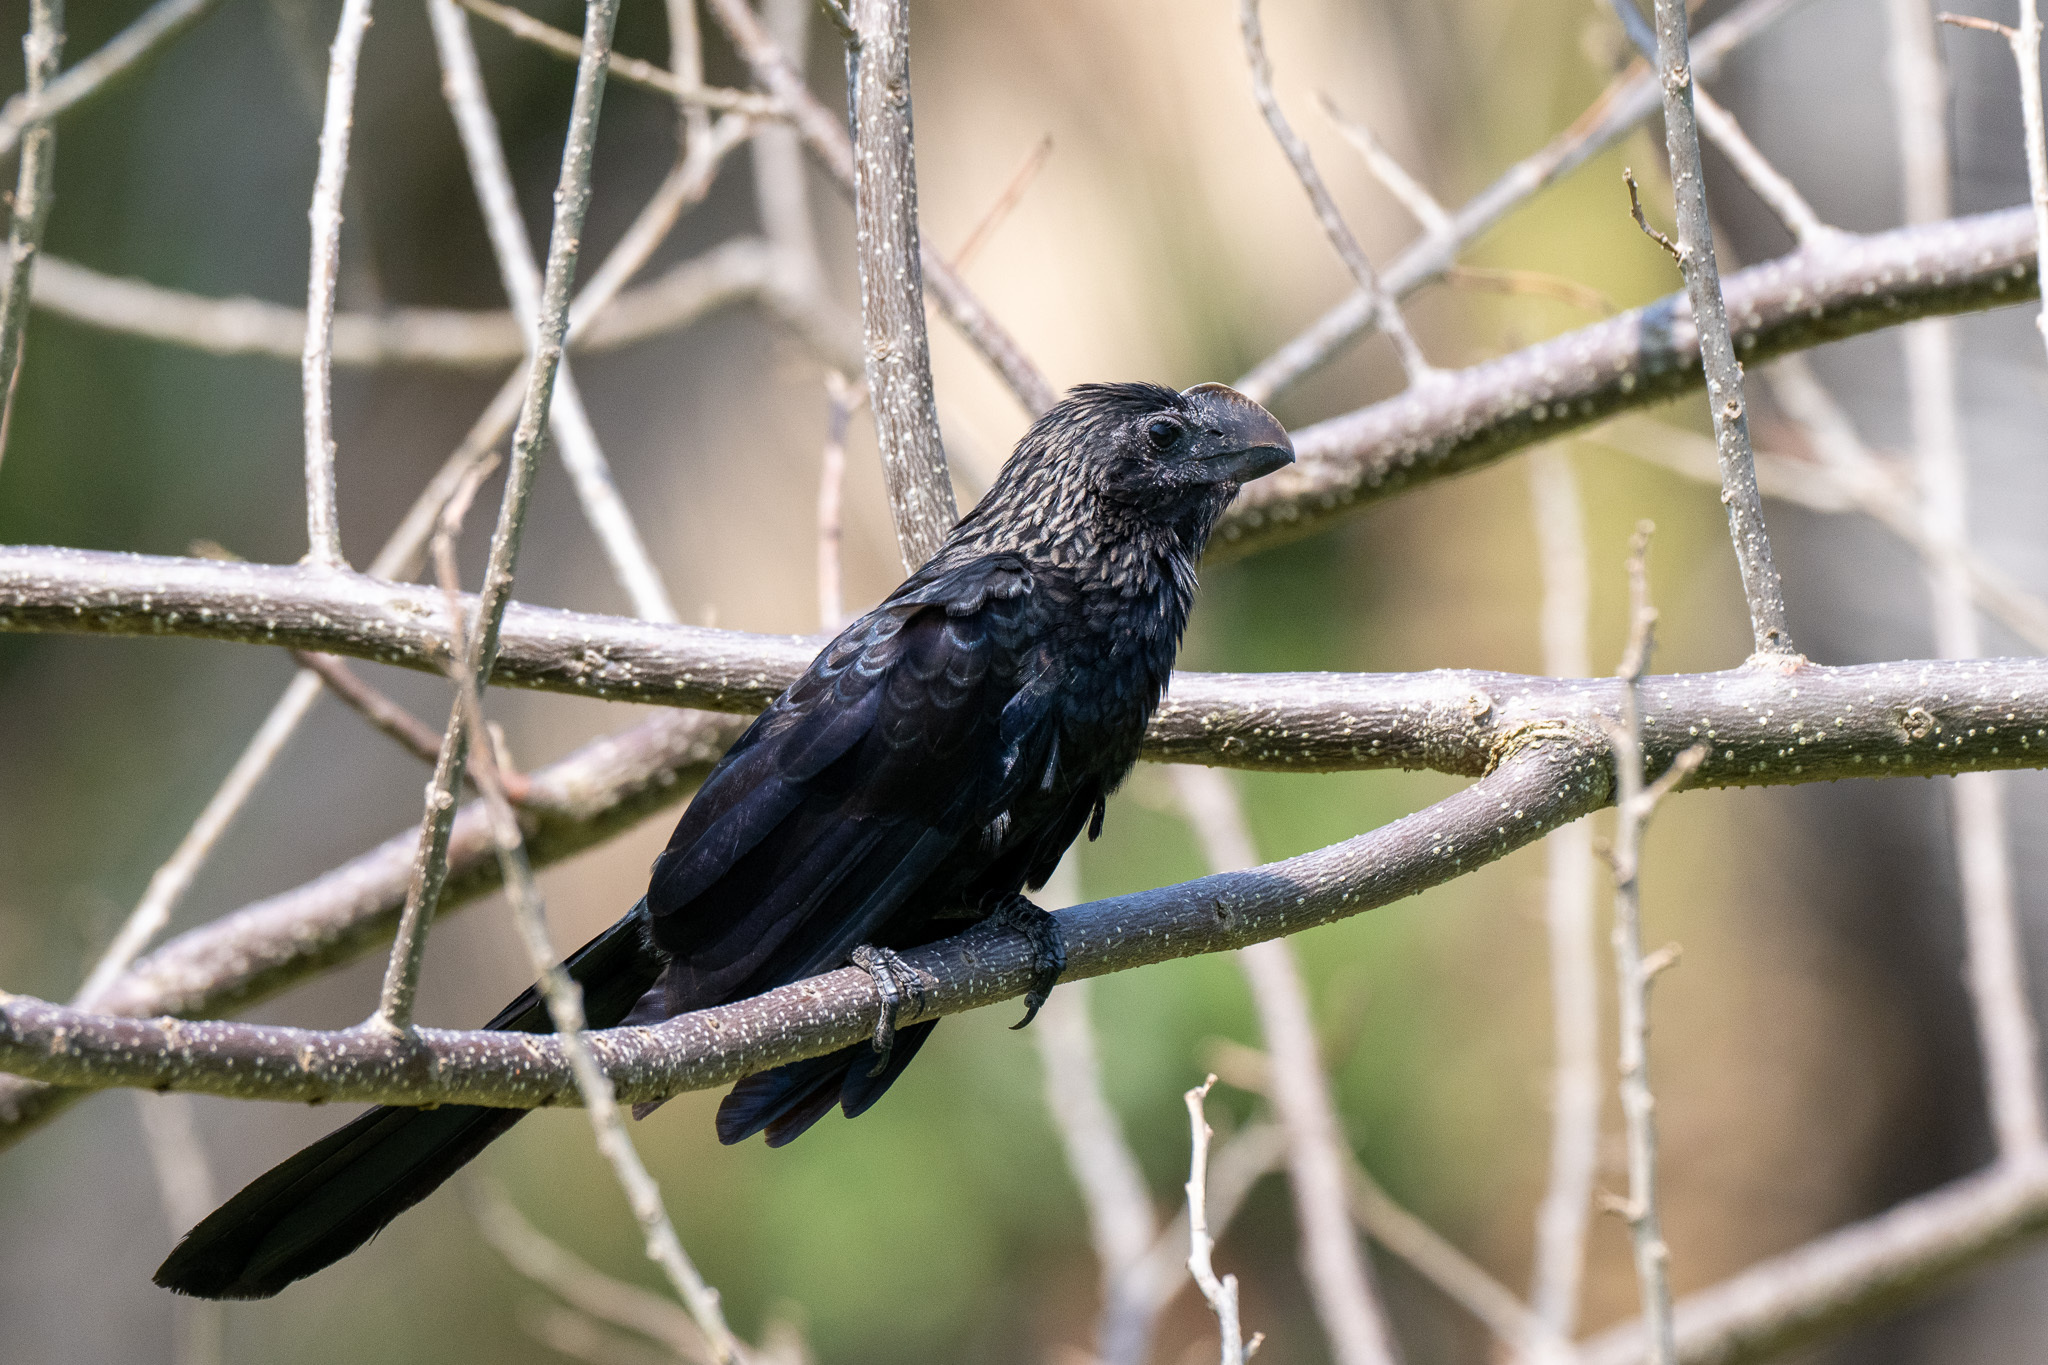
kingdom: Animalia
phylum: Chordata
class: Aves
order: Cuculiformes
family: Cuculidae
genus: Crotophaga
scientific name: Crotophaga ani
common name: Smooth-billed ani
